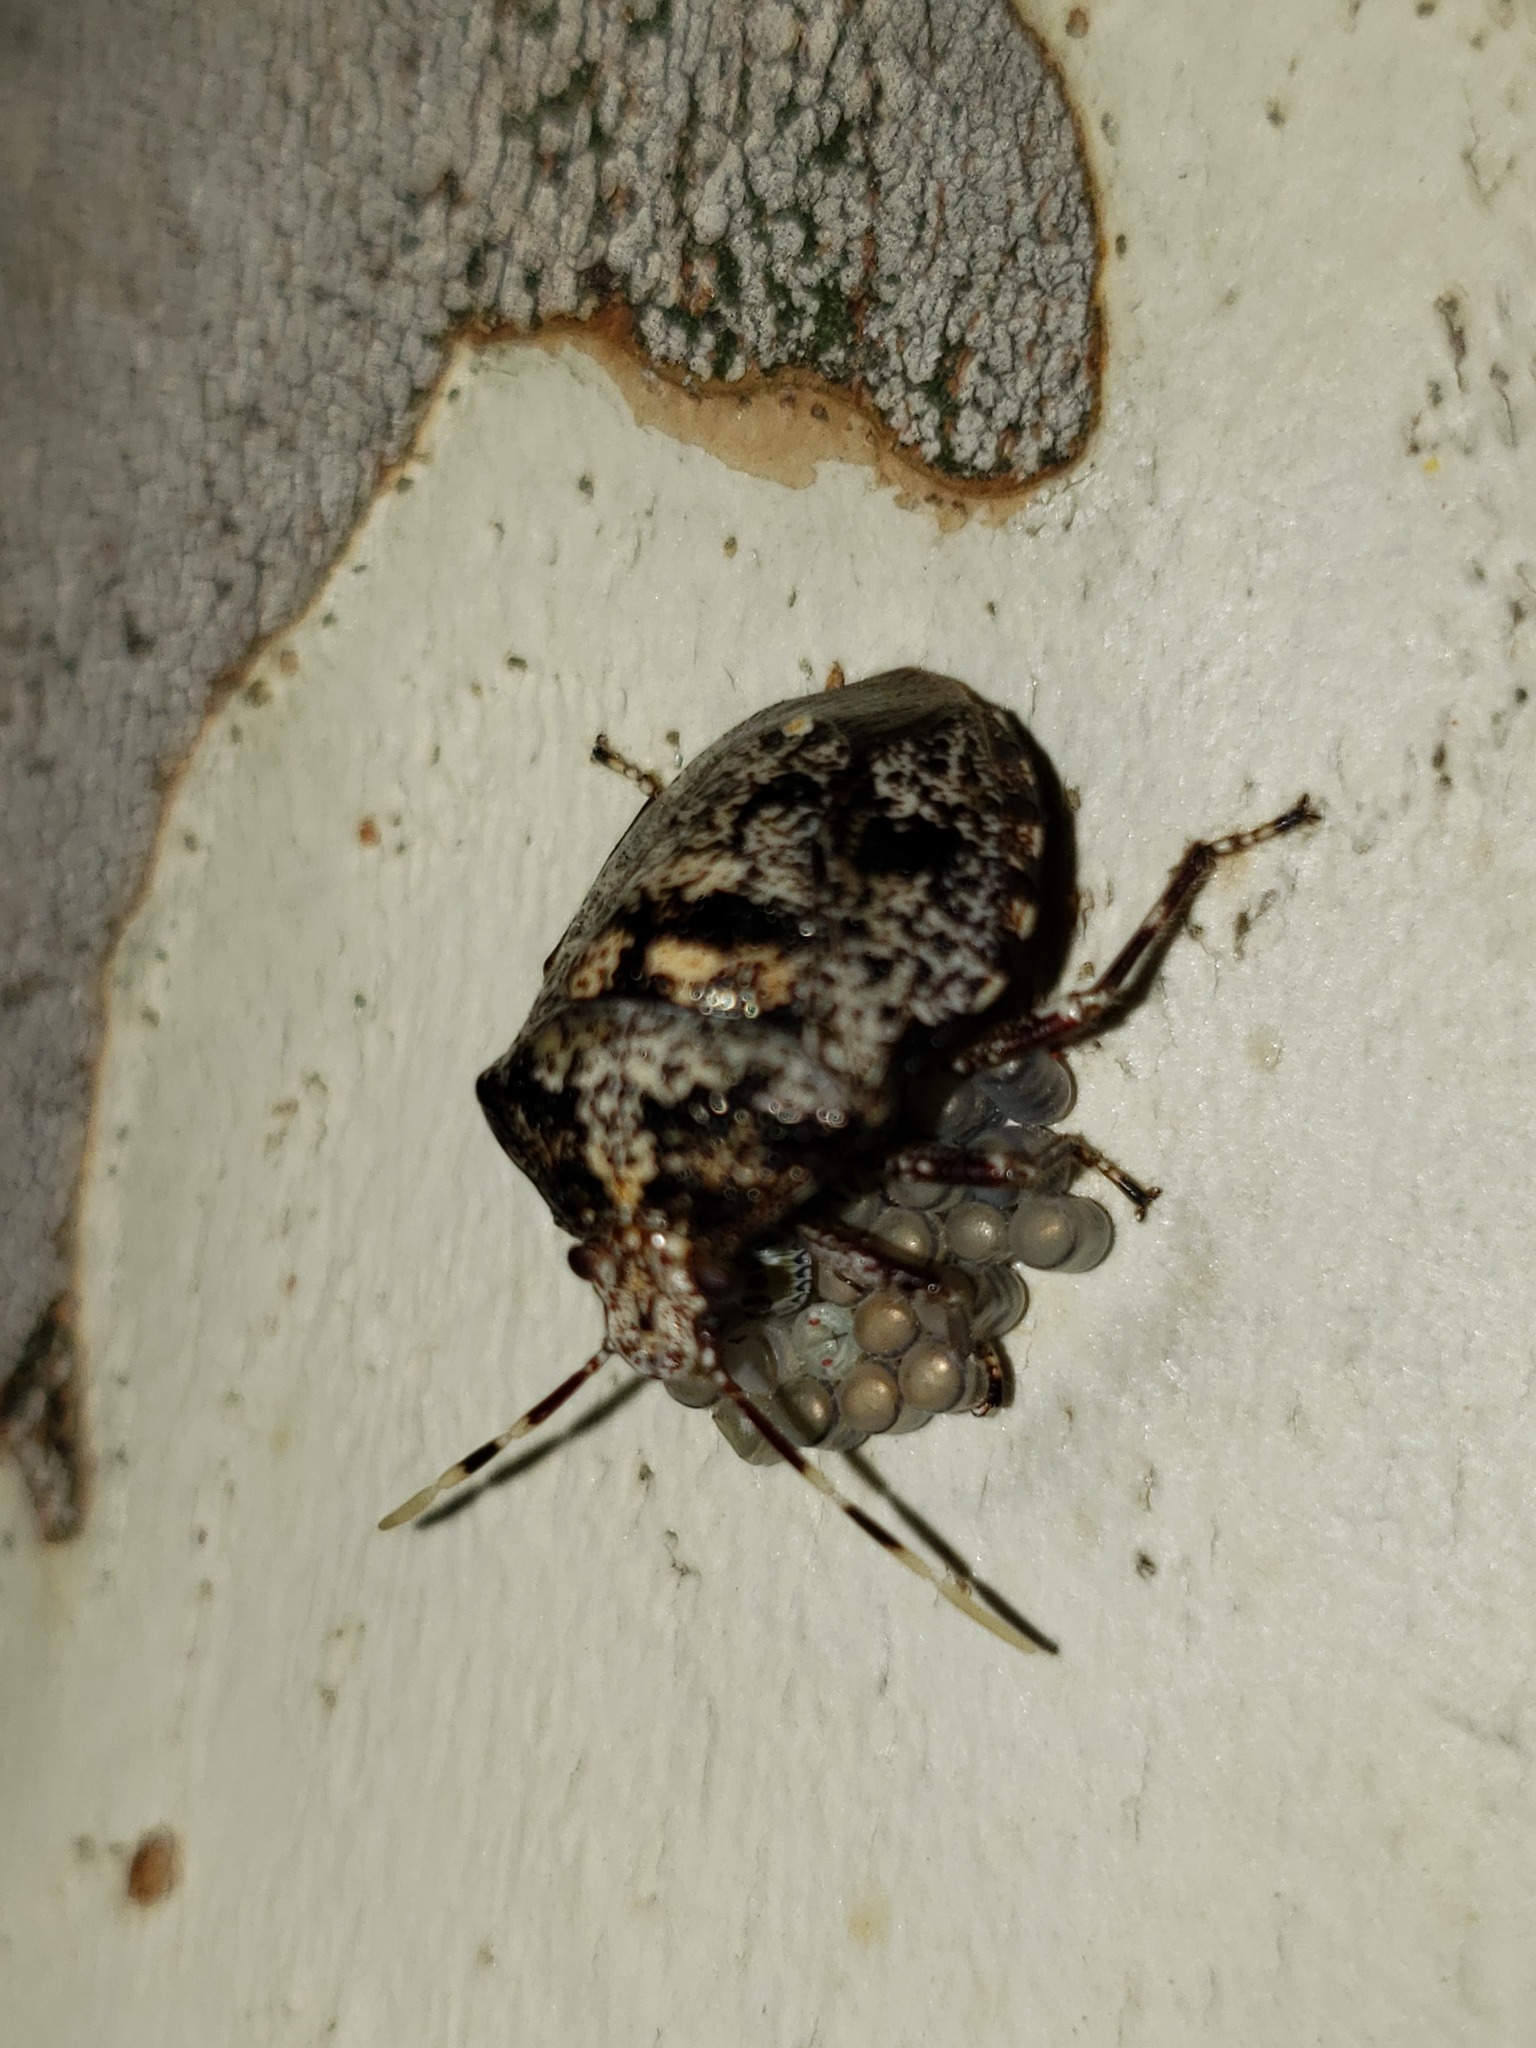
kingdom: Animalia
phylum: Arthropoda
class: Insecta
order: Hemiptera
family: Pentatomidae
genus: Antiteuchus
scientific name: Antiteuchus mixtus
